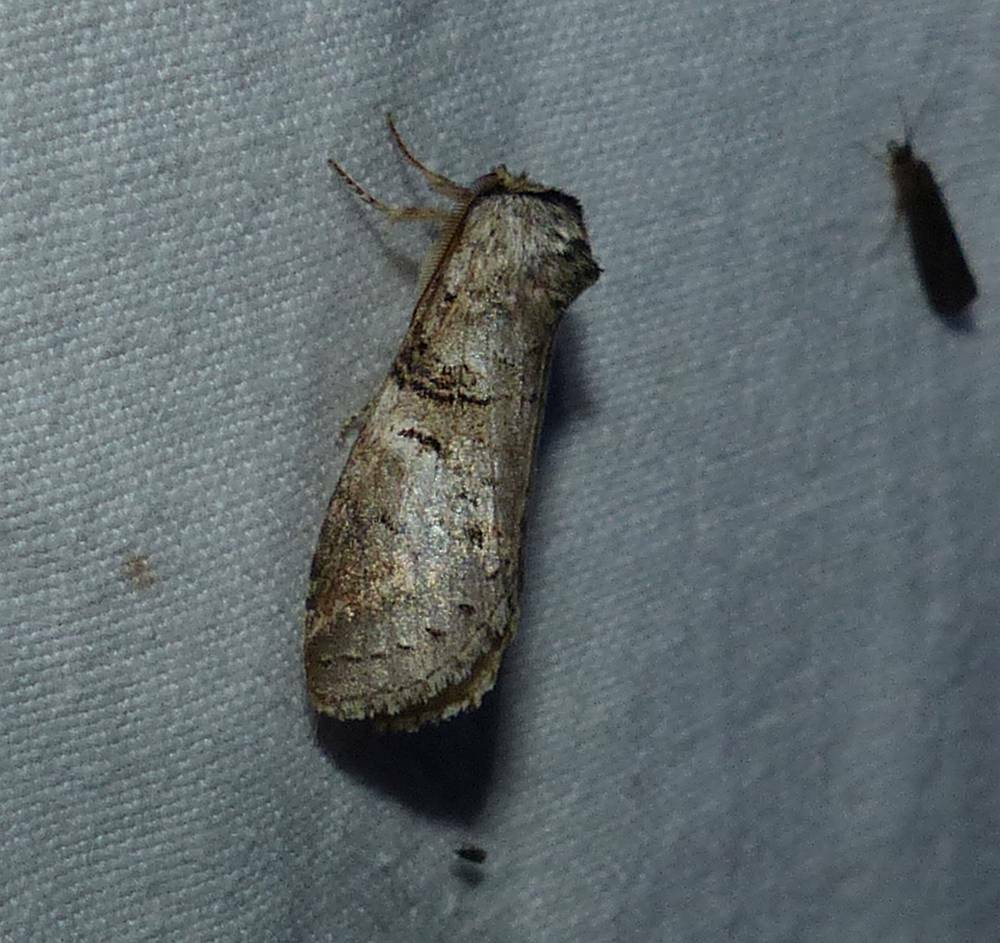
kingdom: Animalia
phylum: Arthropoda
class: Insecta
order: Lepidoptera
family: Notodontidae
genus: Ellida
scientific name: Ellida caniplaga
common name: Linden prominent
